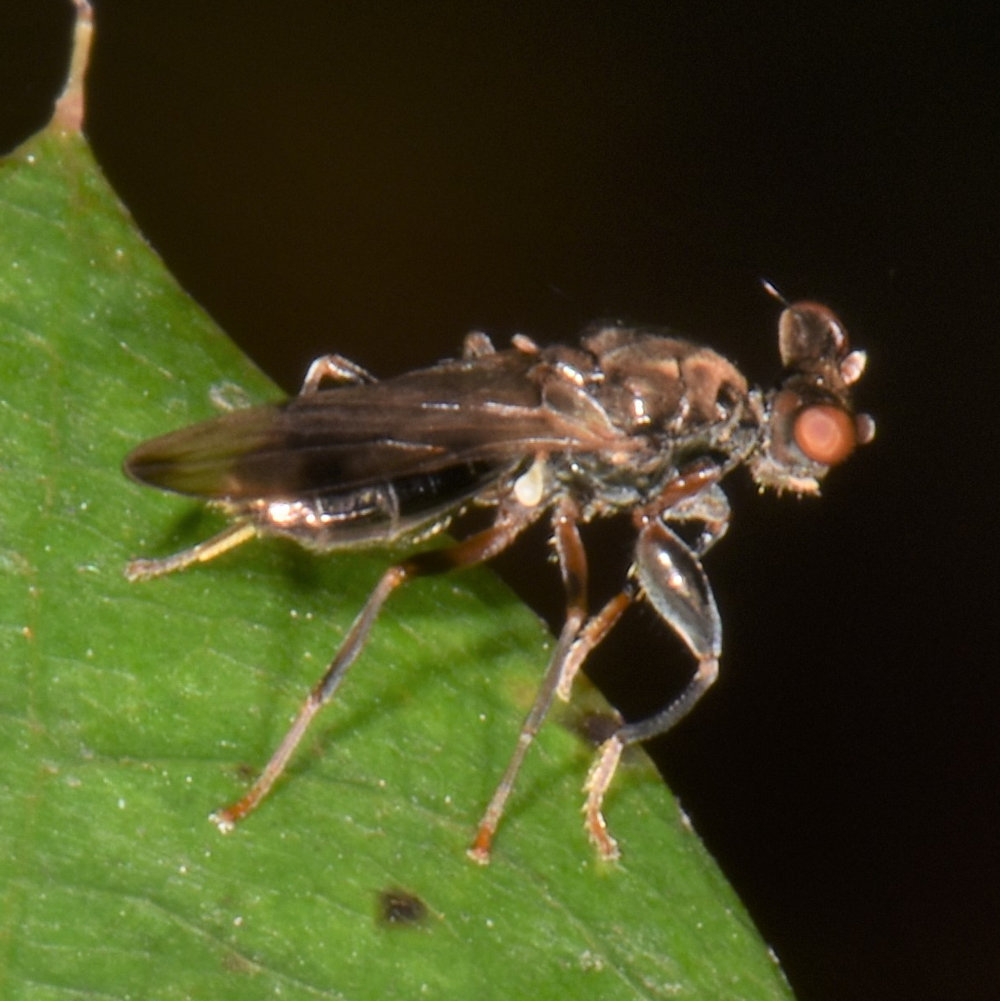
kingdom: Animalia
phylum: Arthropoda
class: Insecta
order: Diptera
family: Diopsidae
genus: Sphyracephala
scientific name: Sphyracephala brevicornis
